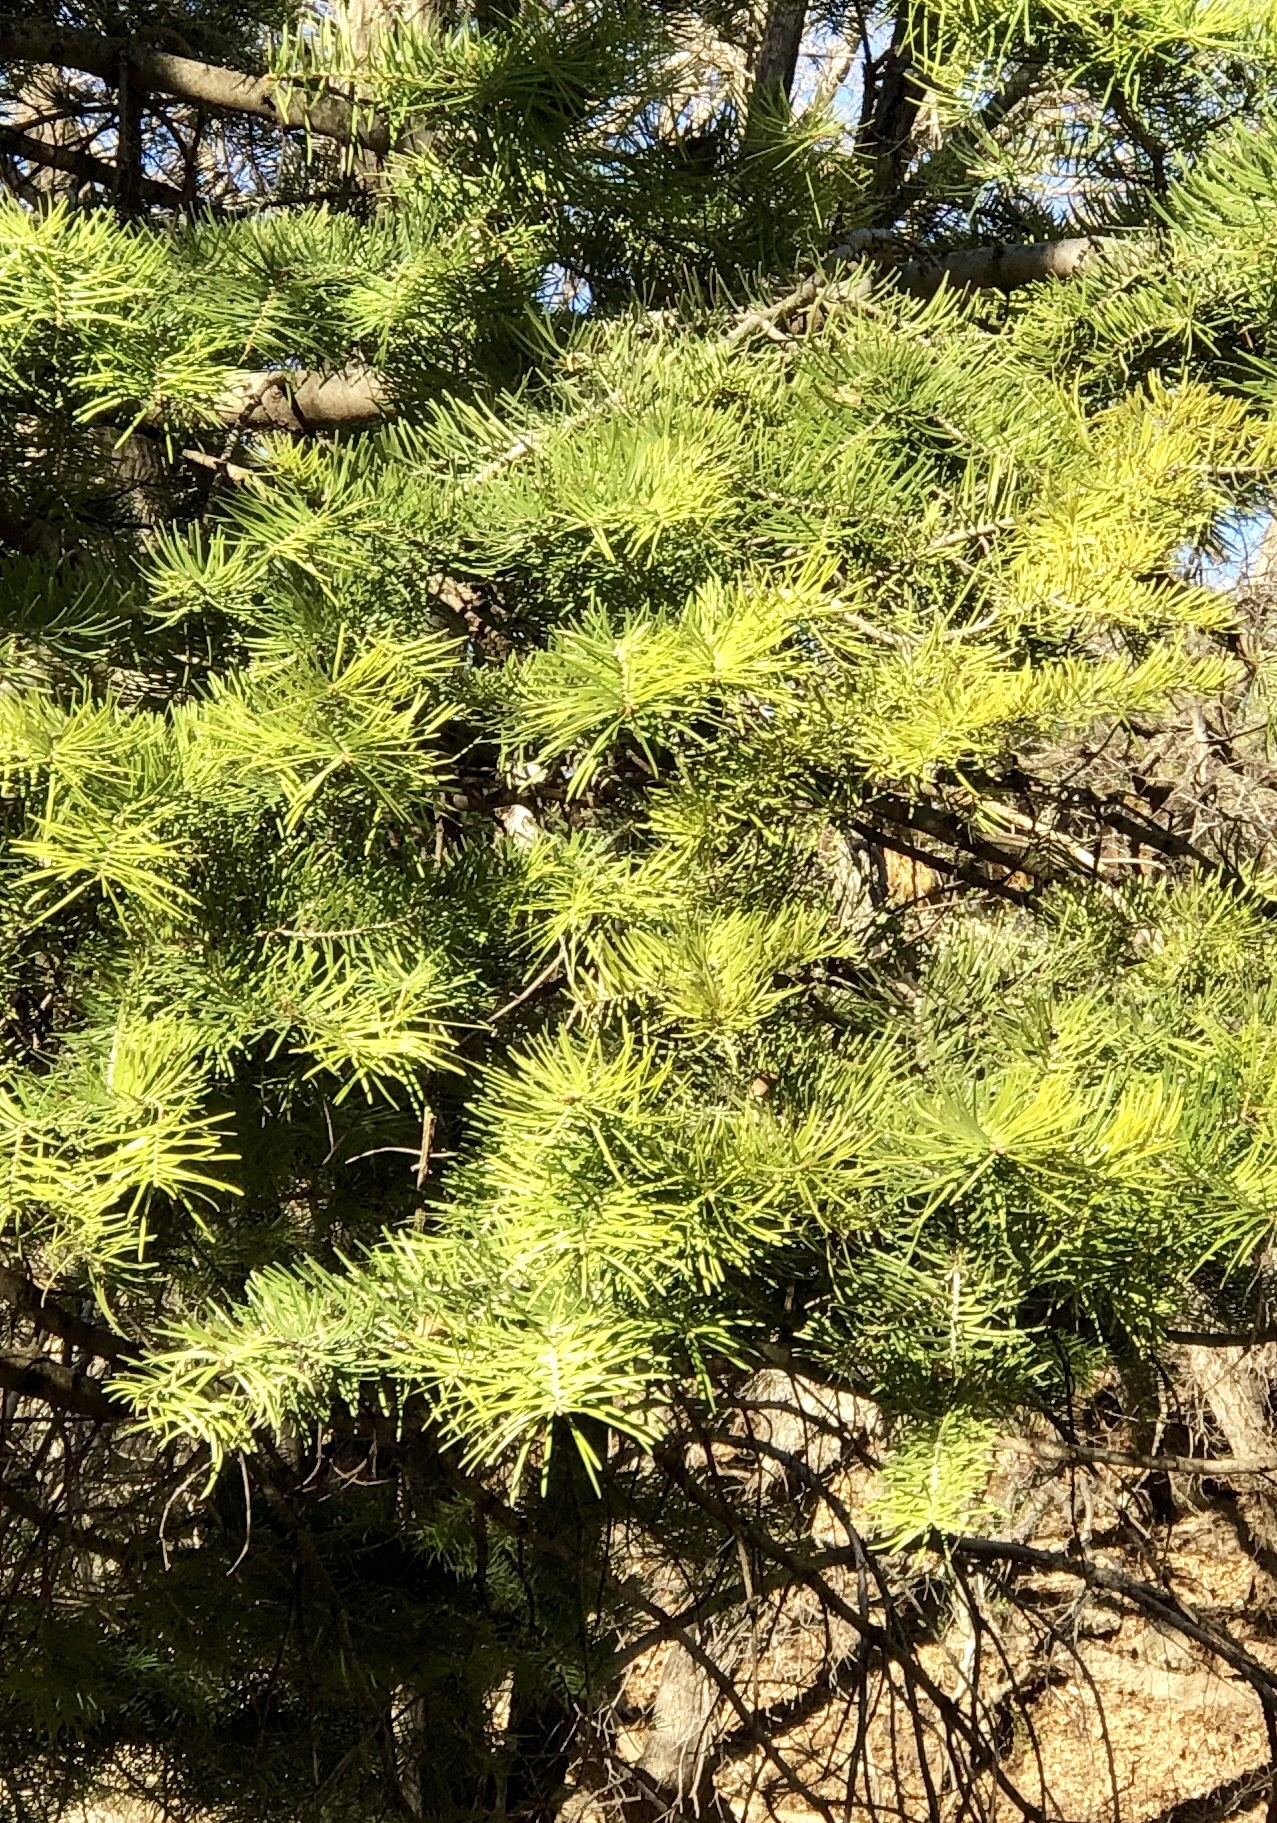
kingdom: Plantae
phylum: Tracheophyta
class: Pinopsida
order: Pinales
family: Pinaceae
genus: Abies
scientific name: Abies concolor
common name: Colorado fir
